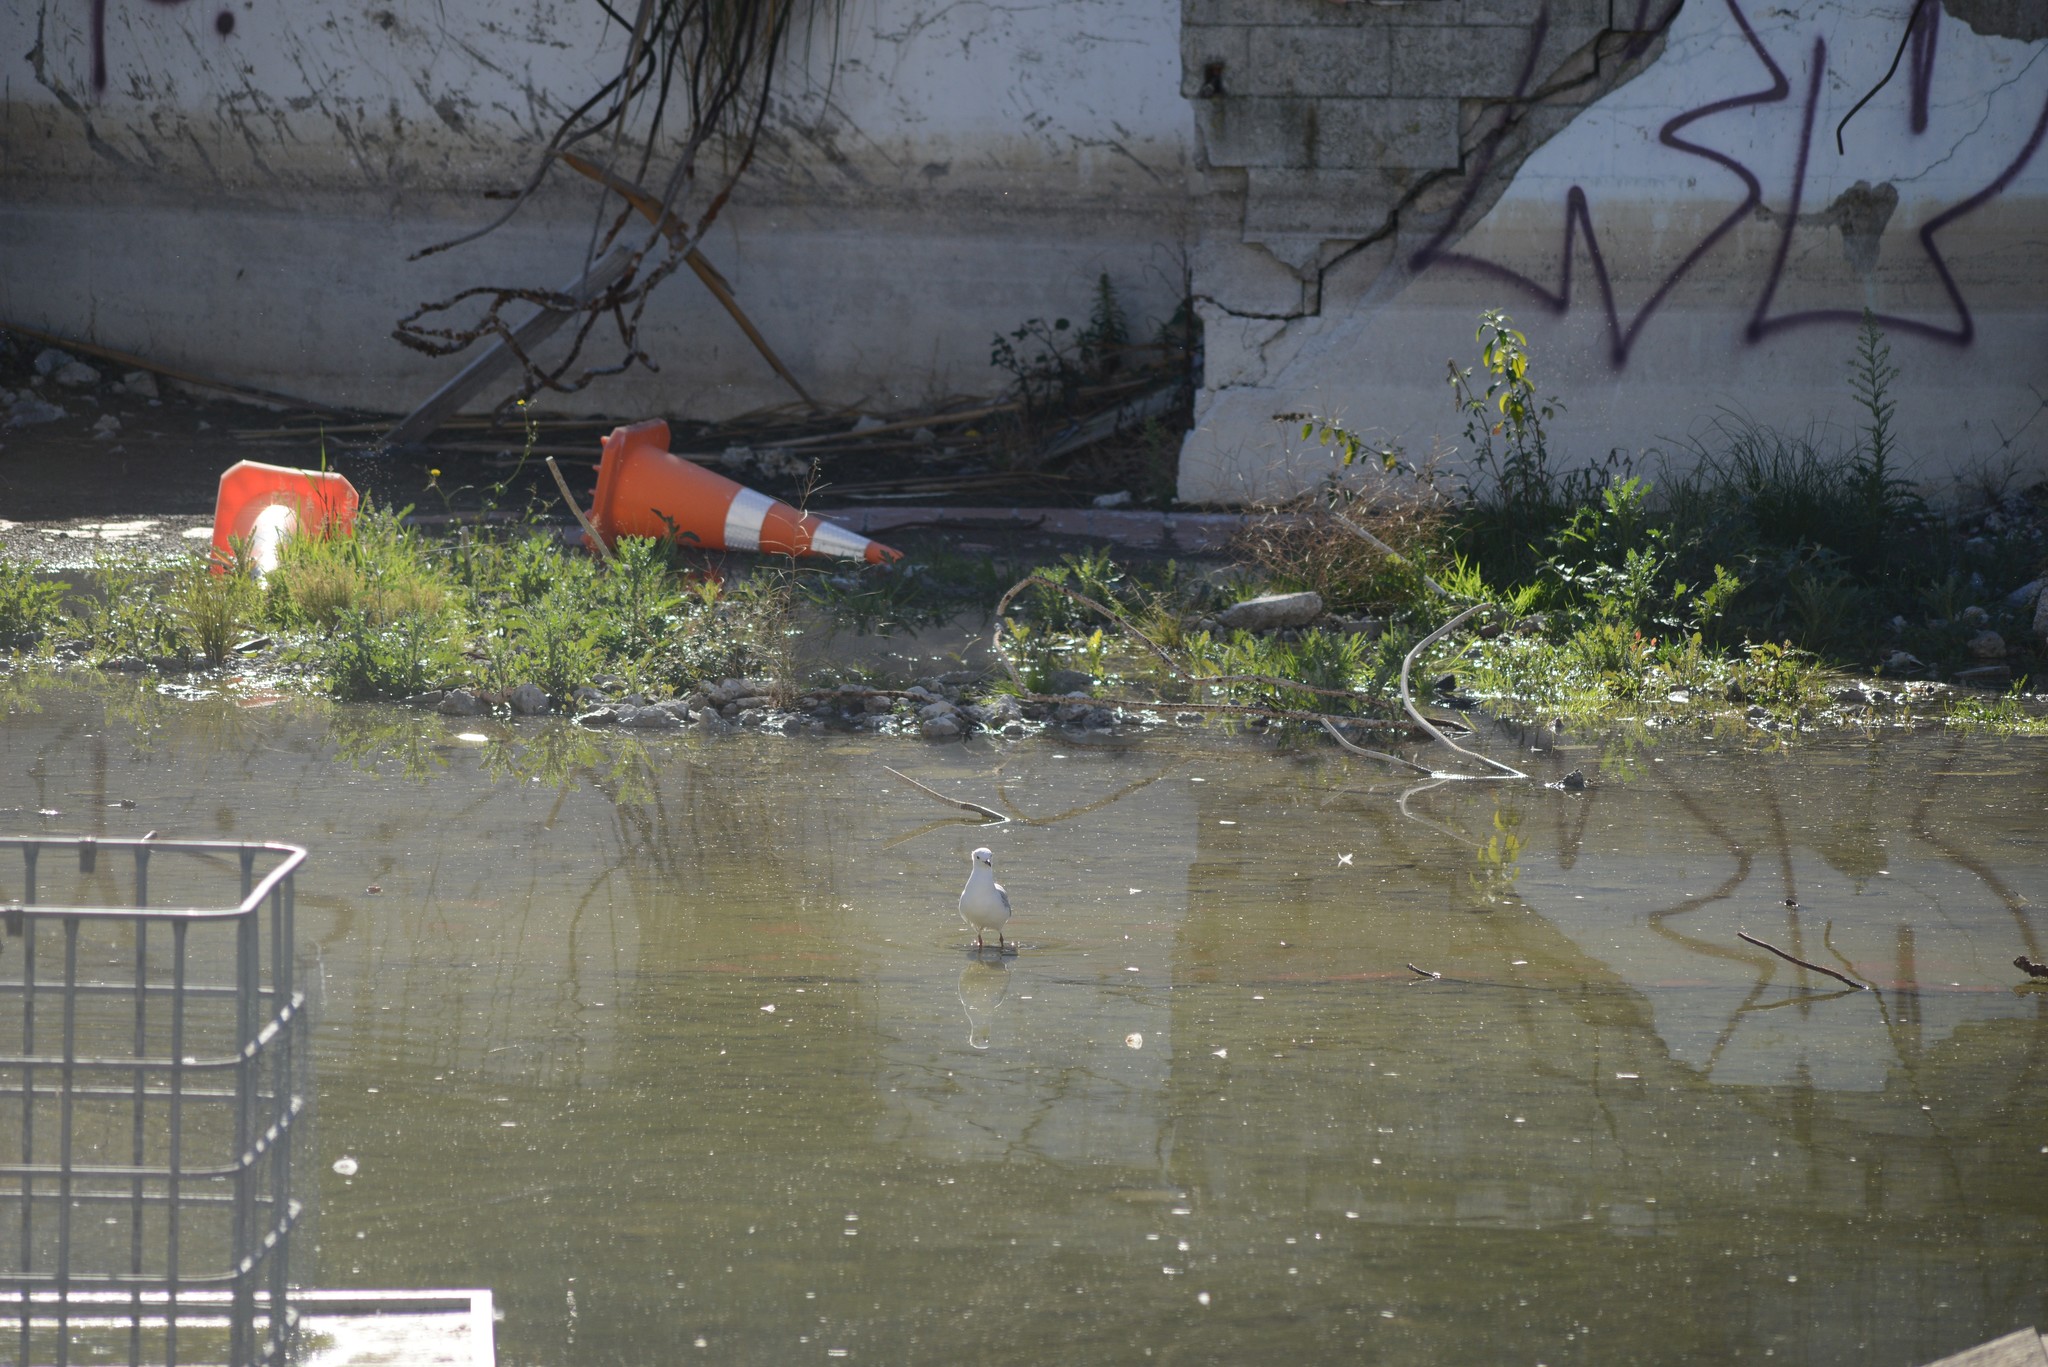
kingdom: Animalia
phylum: Chordata
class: Aves
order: Charadriiformes
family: Laridae
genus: Chroicocephalus
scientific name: Chroicocephalus novaehollandiae
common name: Silver gull
